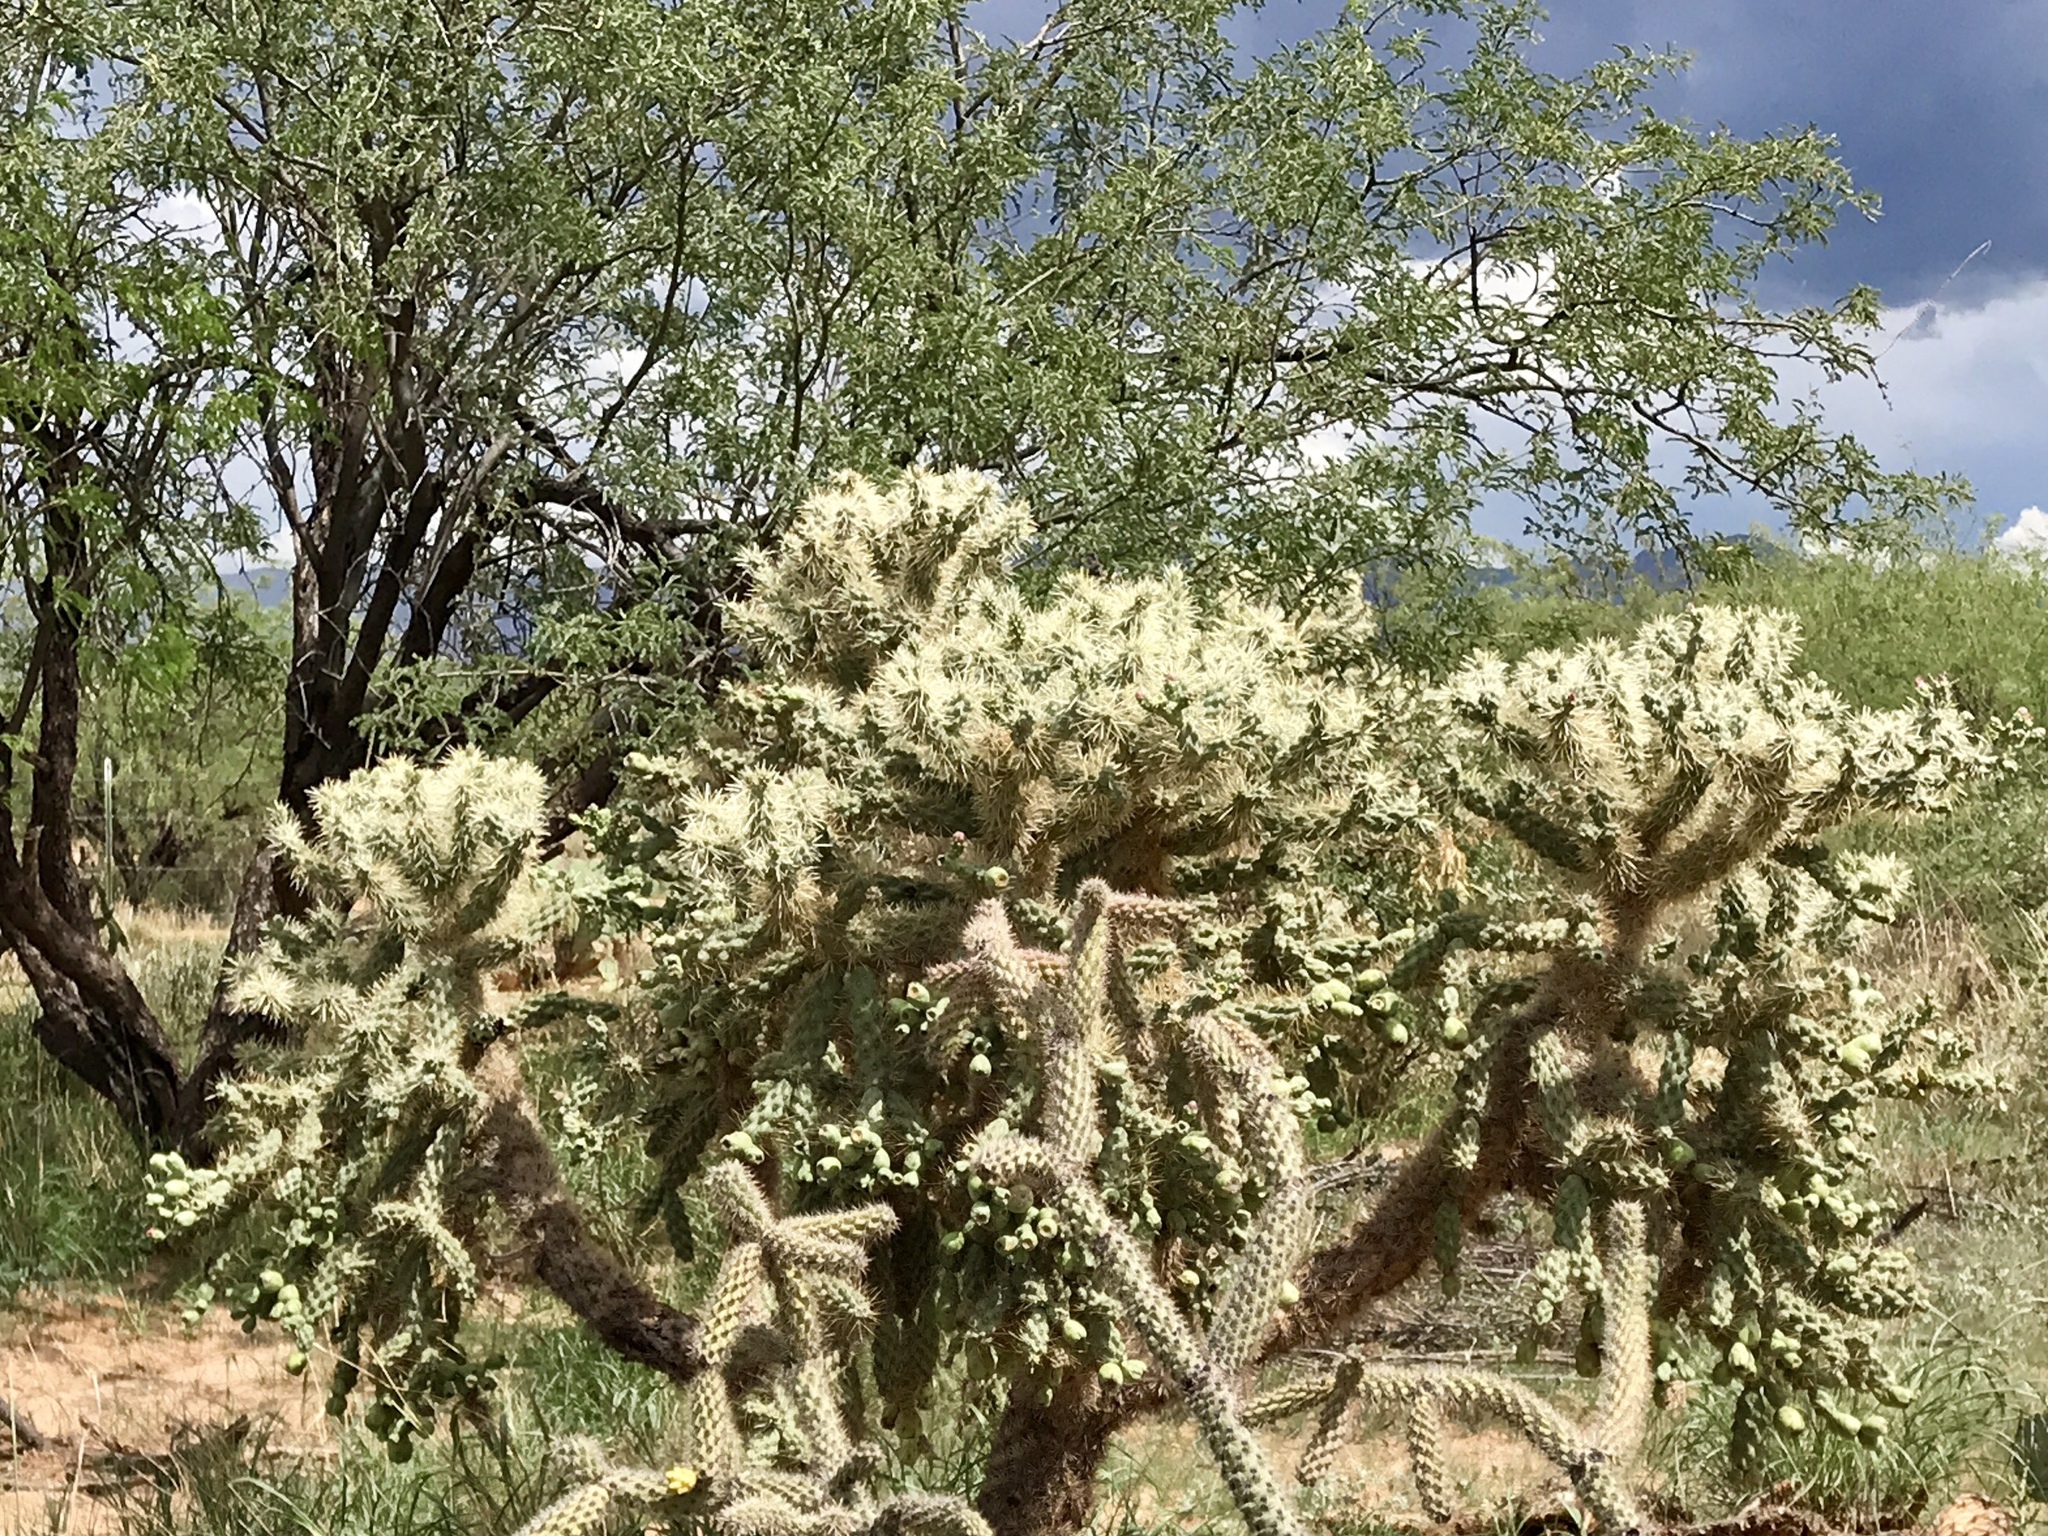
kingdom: Plantae
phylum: Tracheophyta
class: Magnoliopsida
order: Caryophyllales
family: Cactaceae
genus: Cylindropuntia
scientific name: Cylindropuntia fulgida
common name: Jumping cholla
